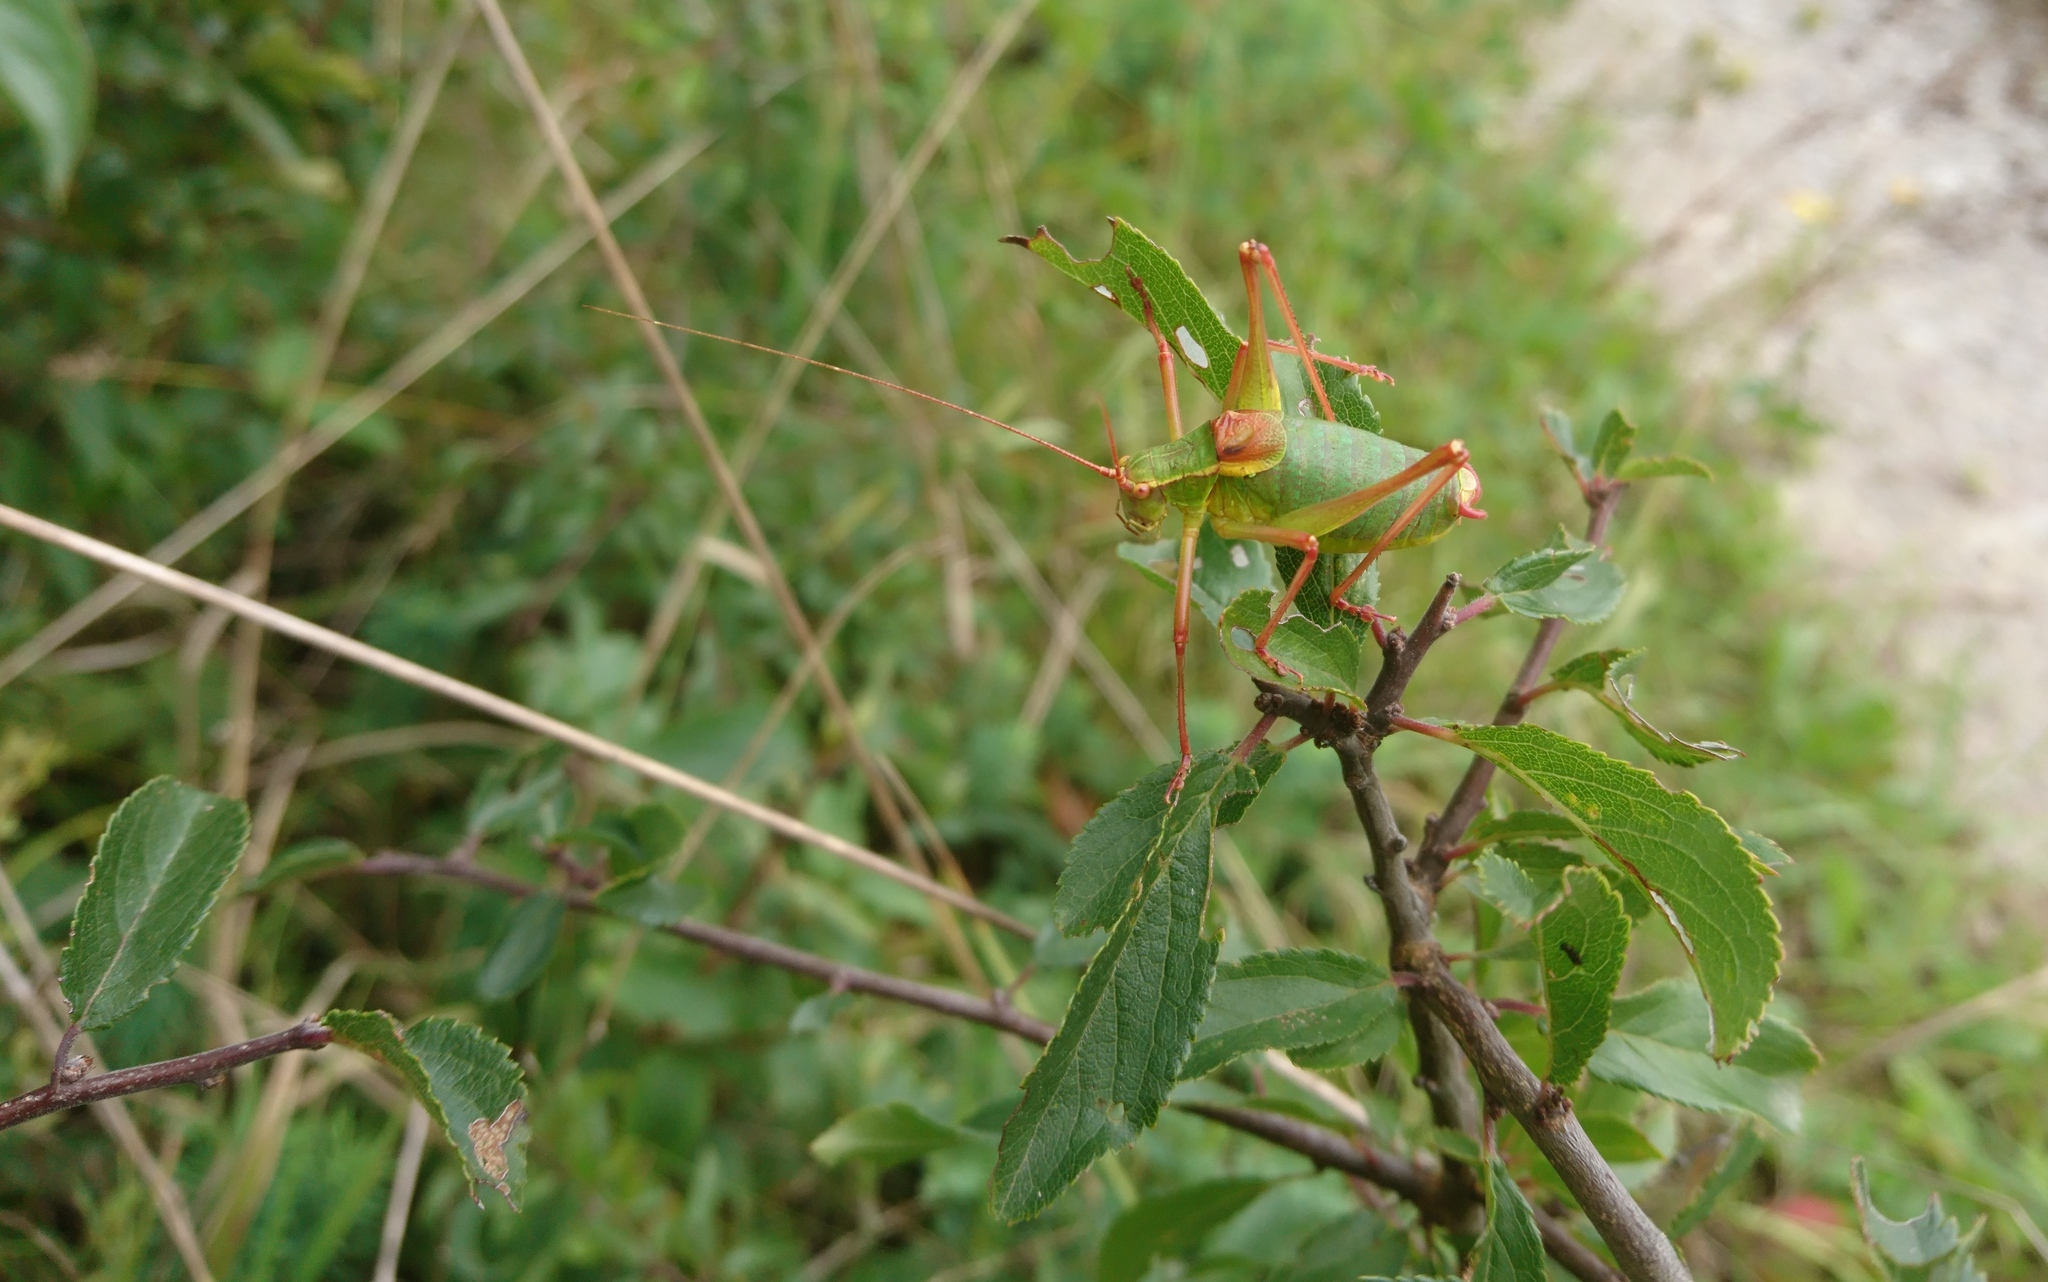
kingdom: Animalia
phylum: Arthropoda
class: Insecta
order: Orthoptera
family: Tettigoniidae
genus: Barbitistes
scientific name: Barbitistes serricauda
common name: Saw-tailed bush-cricket
